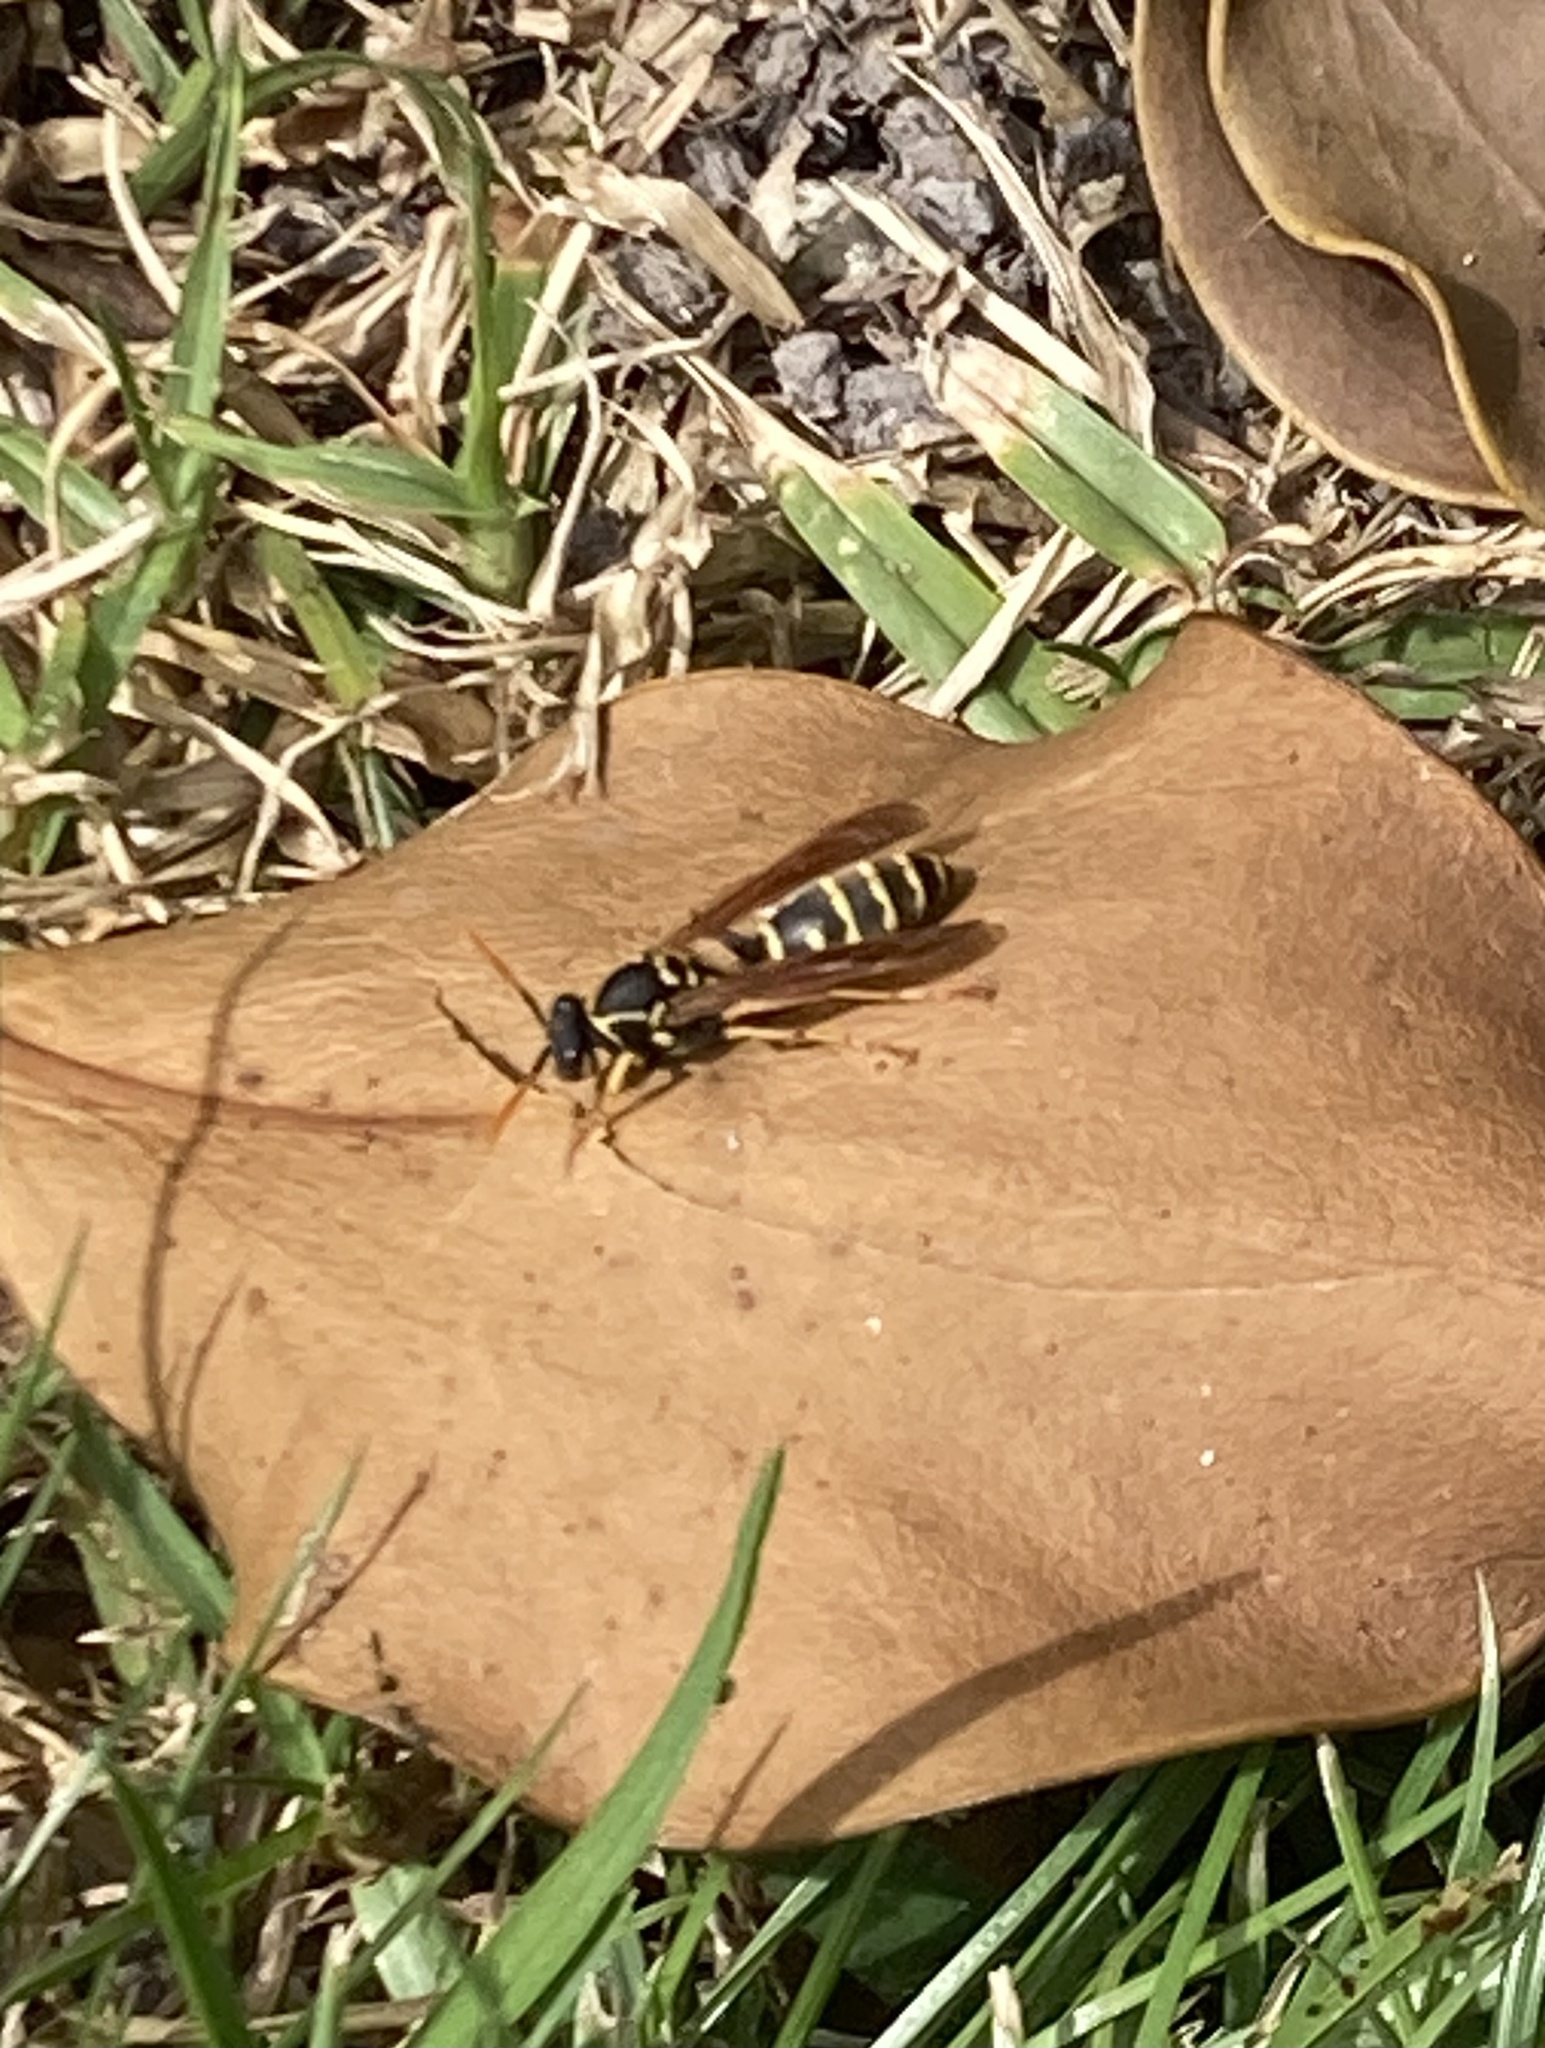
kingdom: Animalia
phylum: Arthropoda
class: Insecta
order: Hymenoptera
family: Eumenidae
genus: Polistes
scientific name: Polistes chinensis
